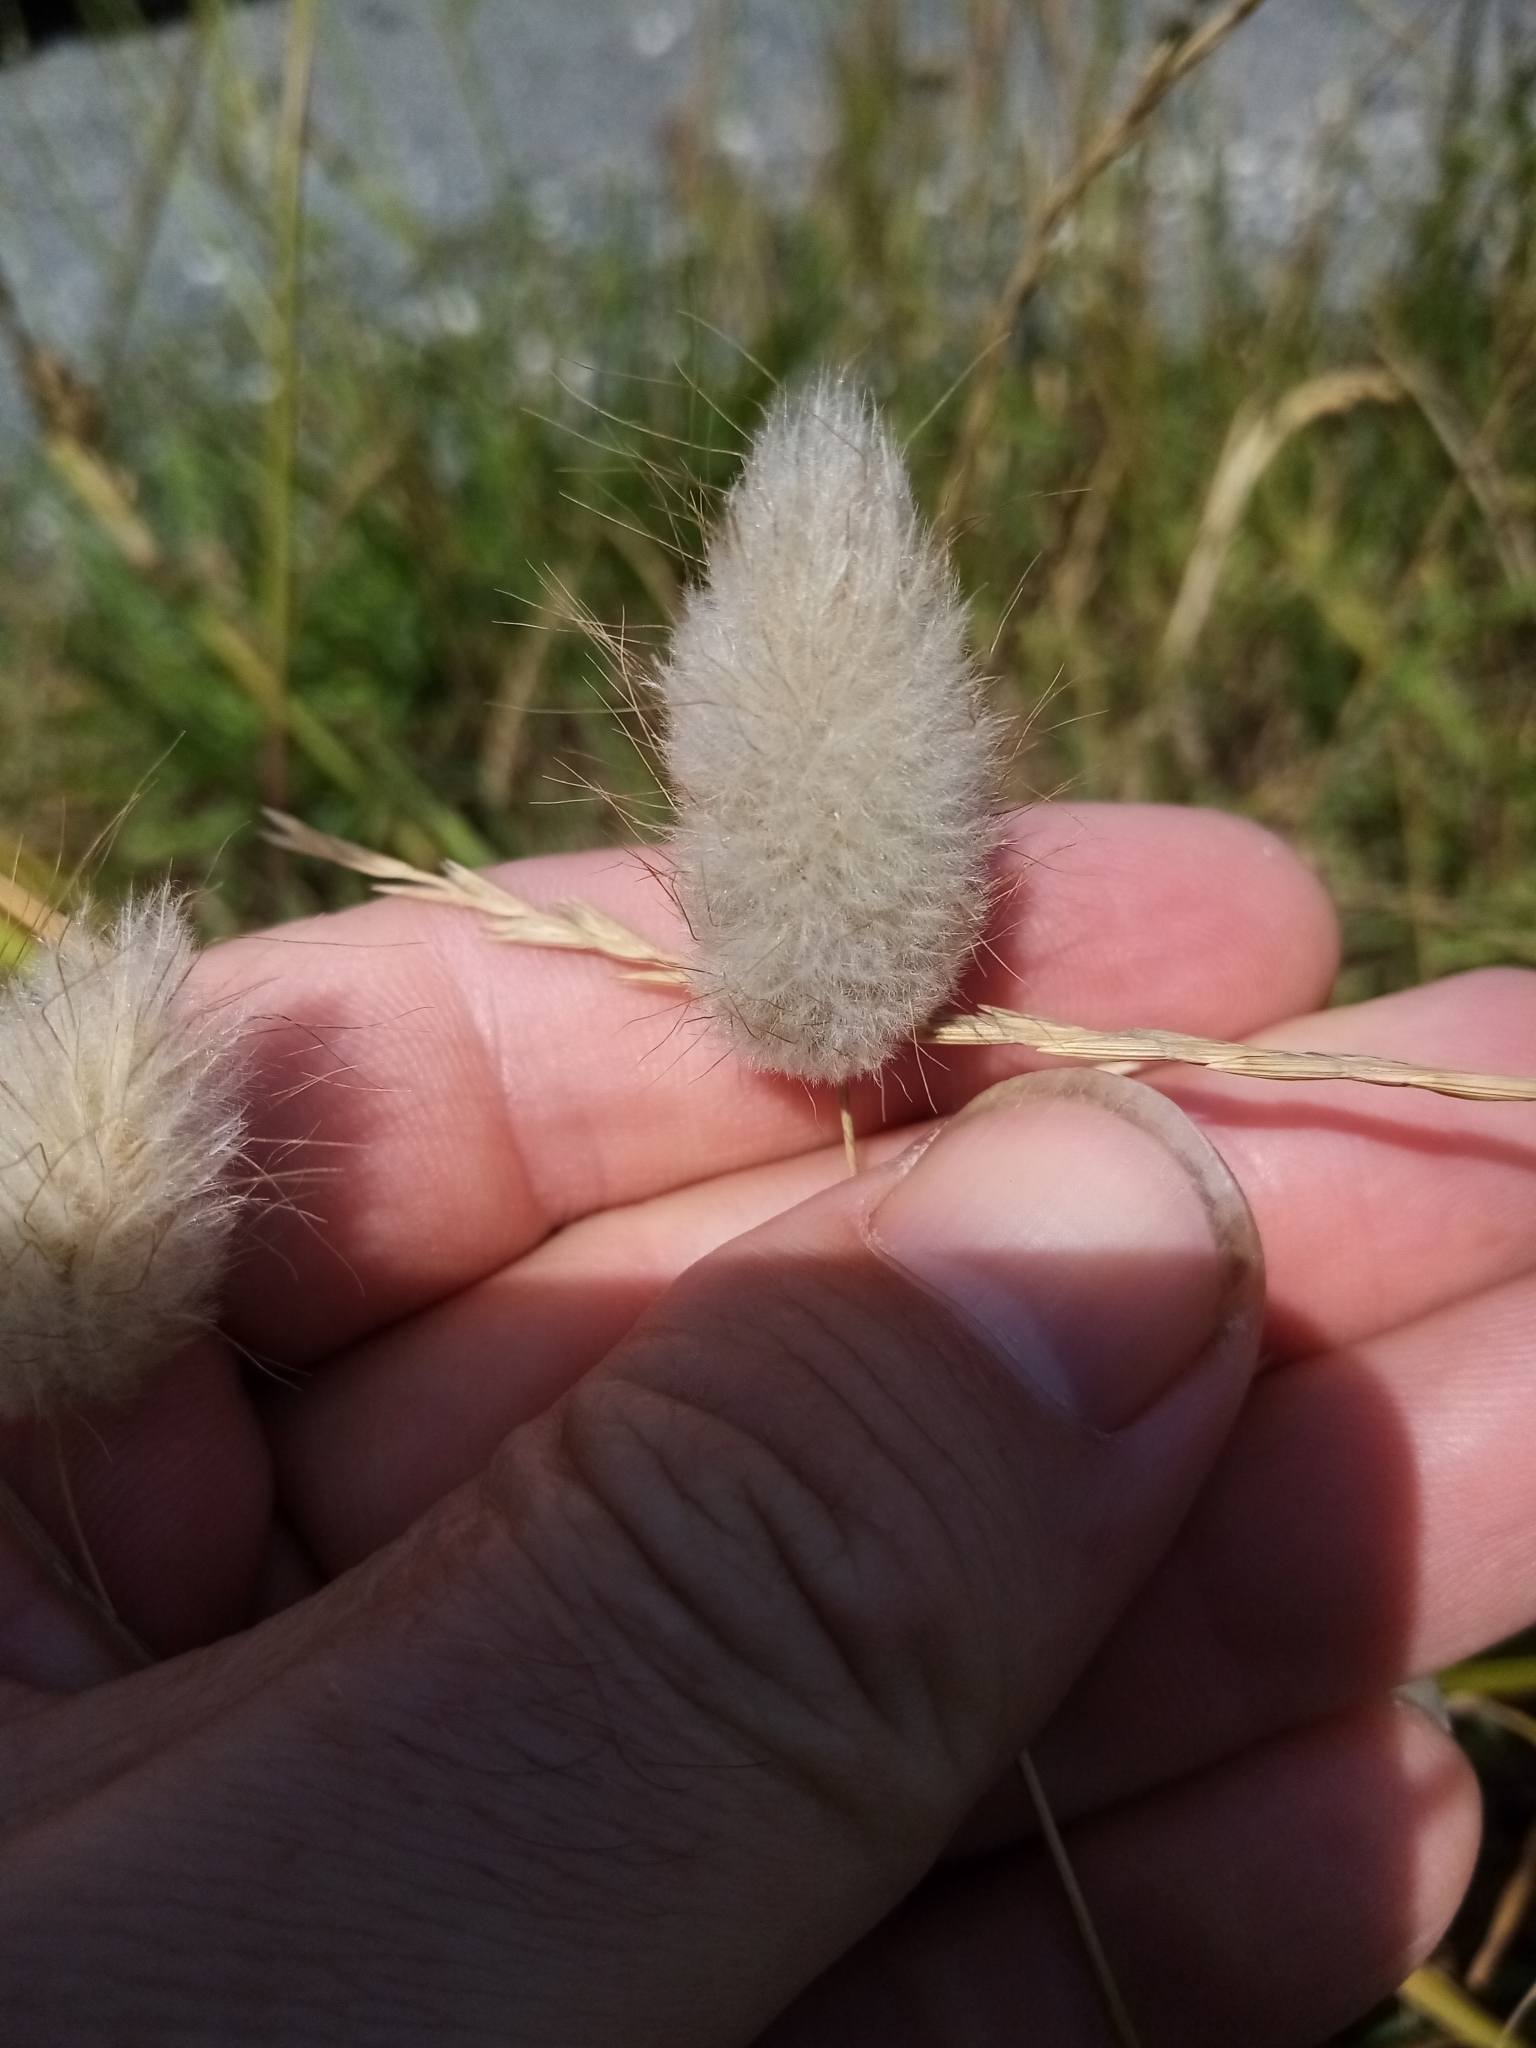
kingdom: Plantae
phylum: Tracheophyta
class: Liliopsida
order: Poales
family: Poaceae
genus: Lagurus
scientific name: Lagurus ovatus
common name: Hare's-tail
